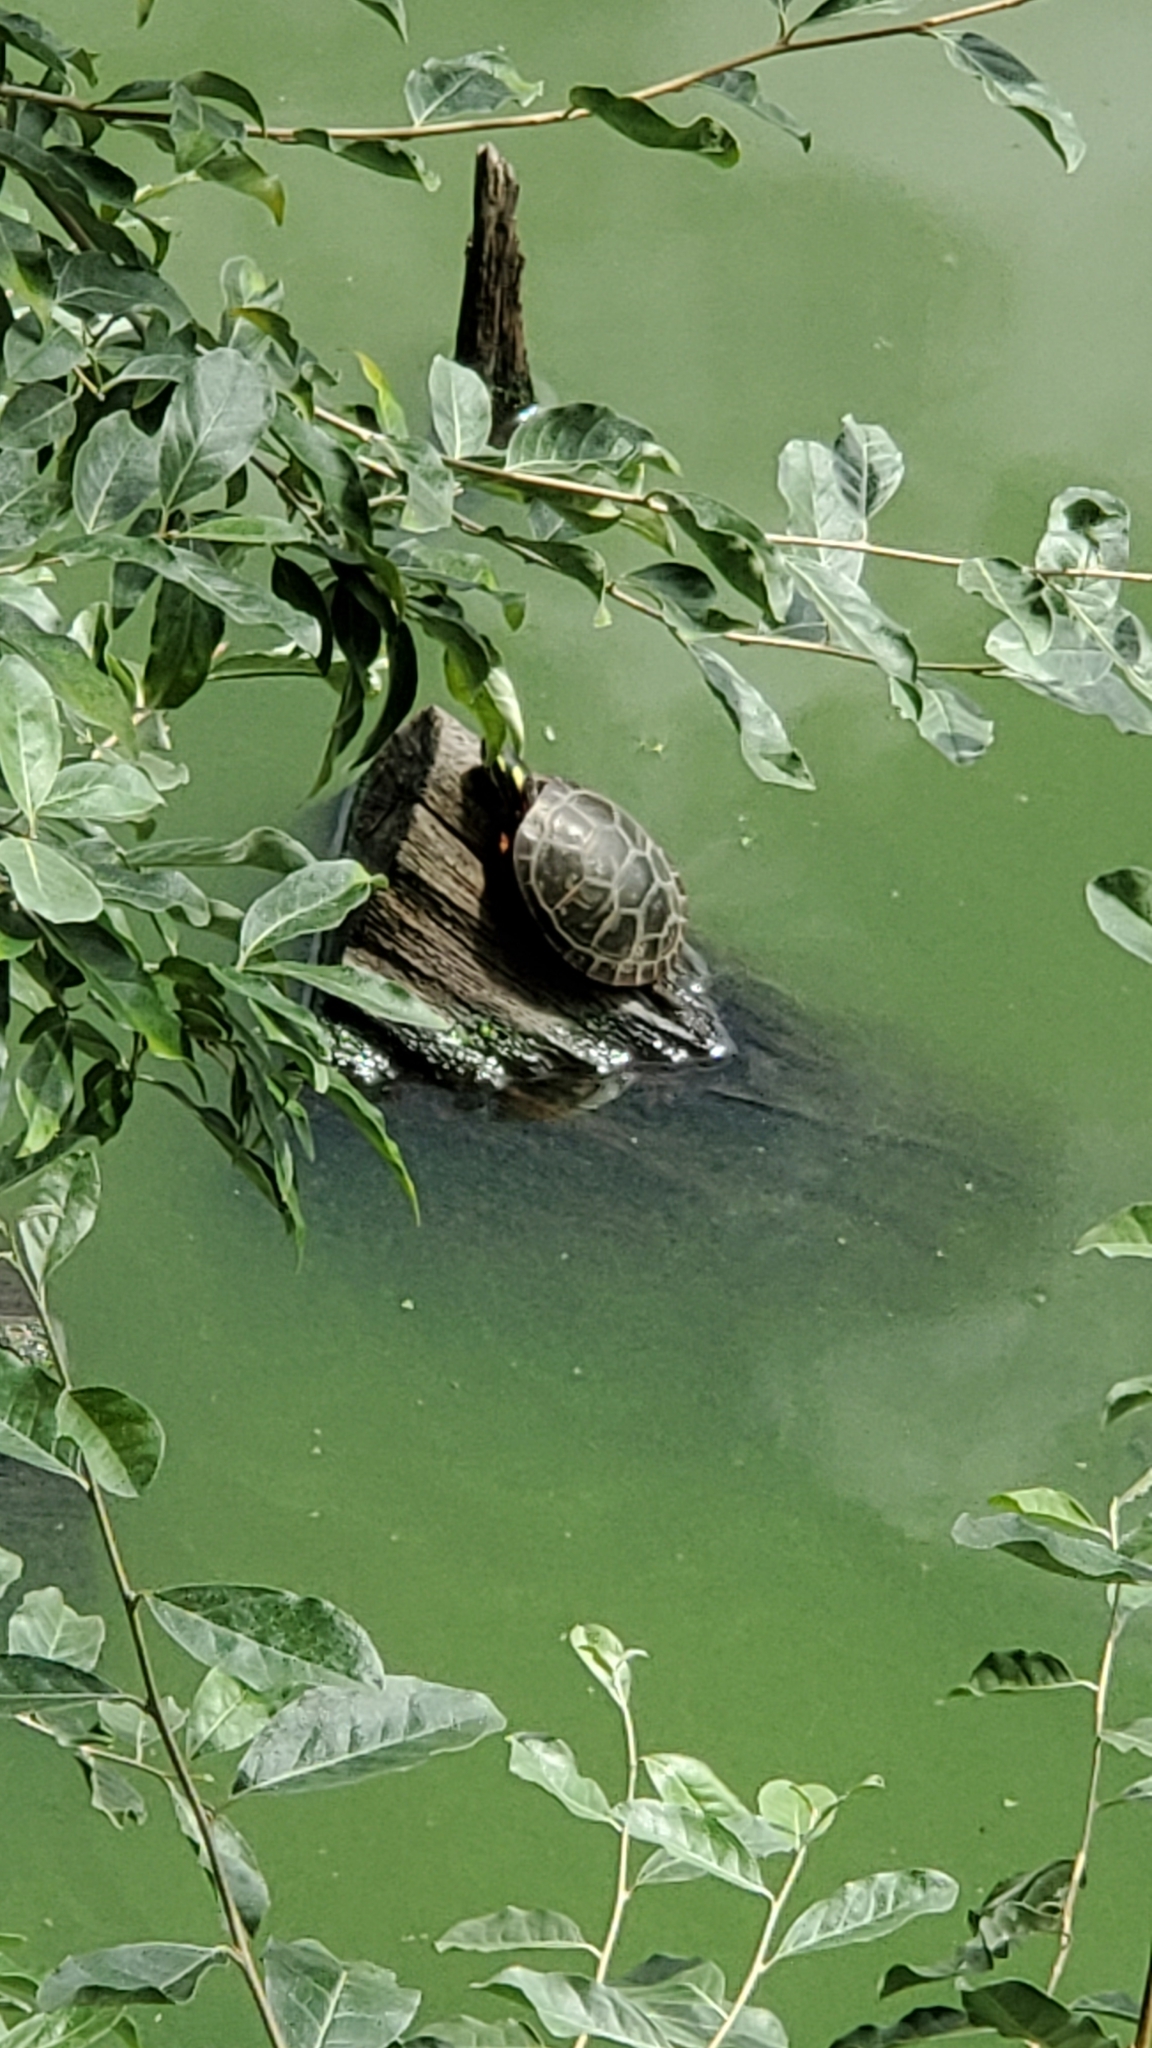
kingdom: Animalia
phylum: Chordata
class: Testudines
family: Emydidae
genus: Chrysemys
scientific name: Chrysemys picta
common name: Painted turtle
